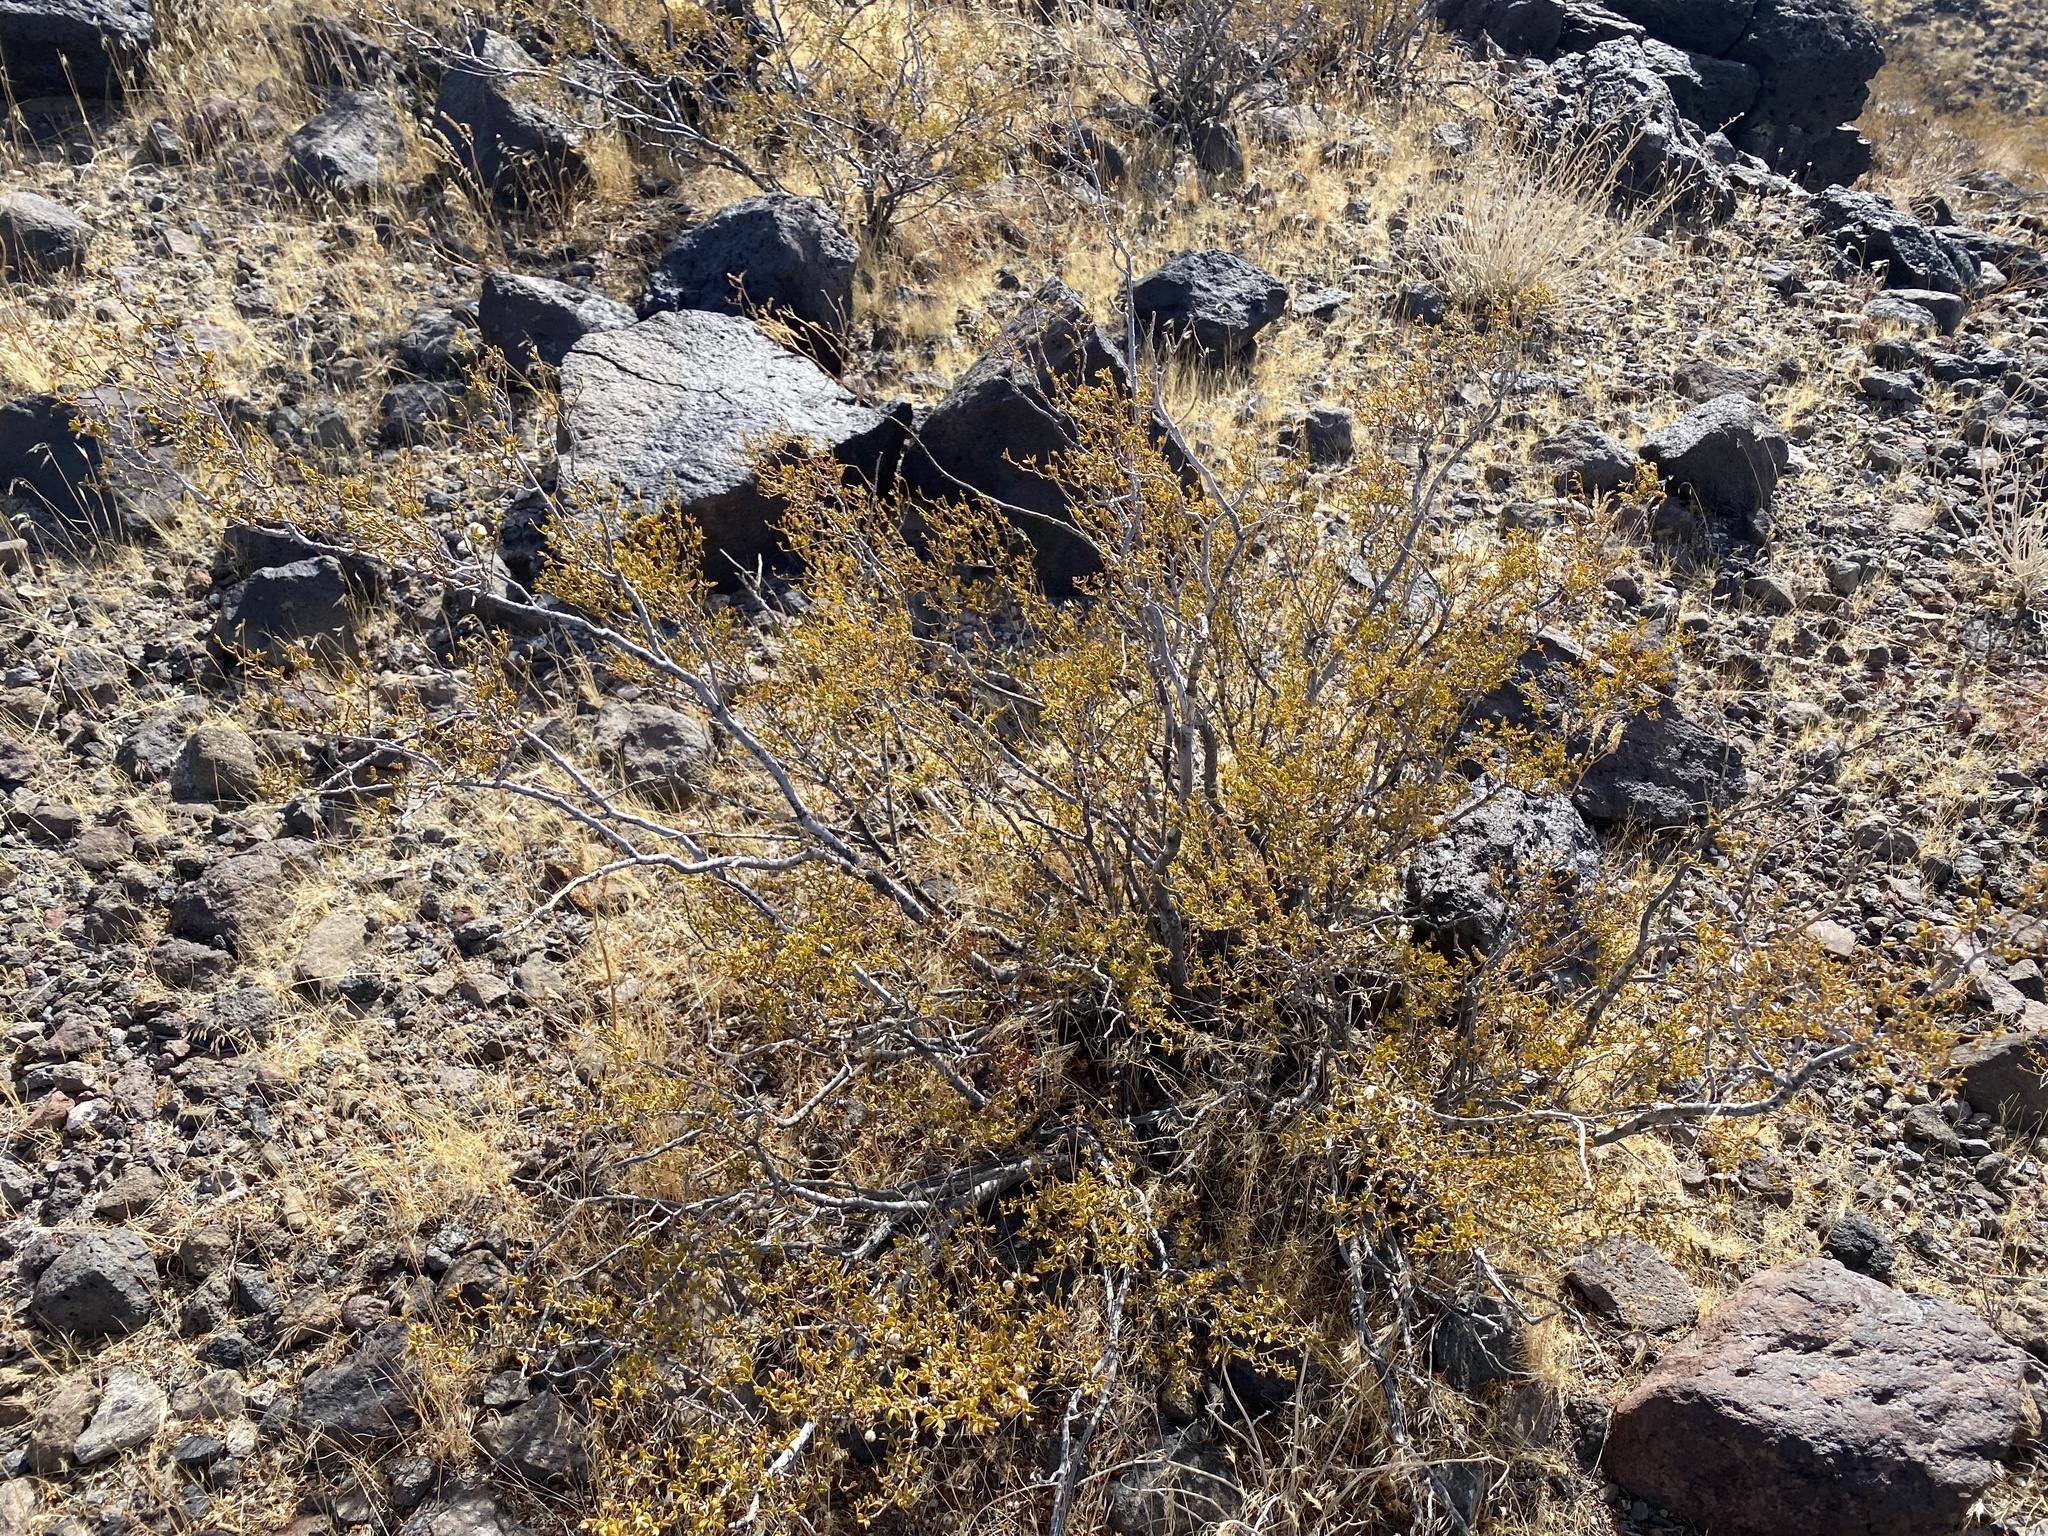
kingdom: Plantae
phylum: Tracheophyta
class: Magnoliopsida
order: Zygophyllales
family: Zygophyllaceae
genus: Larrea
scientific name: Larrea tridentata
